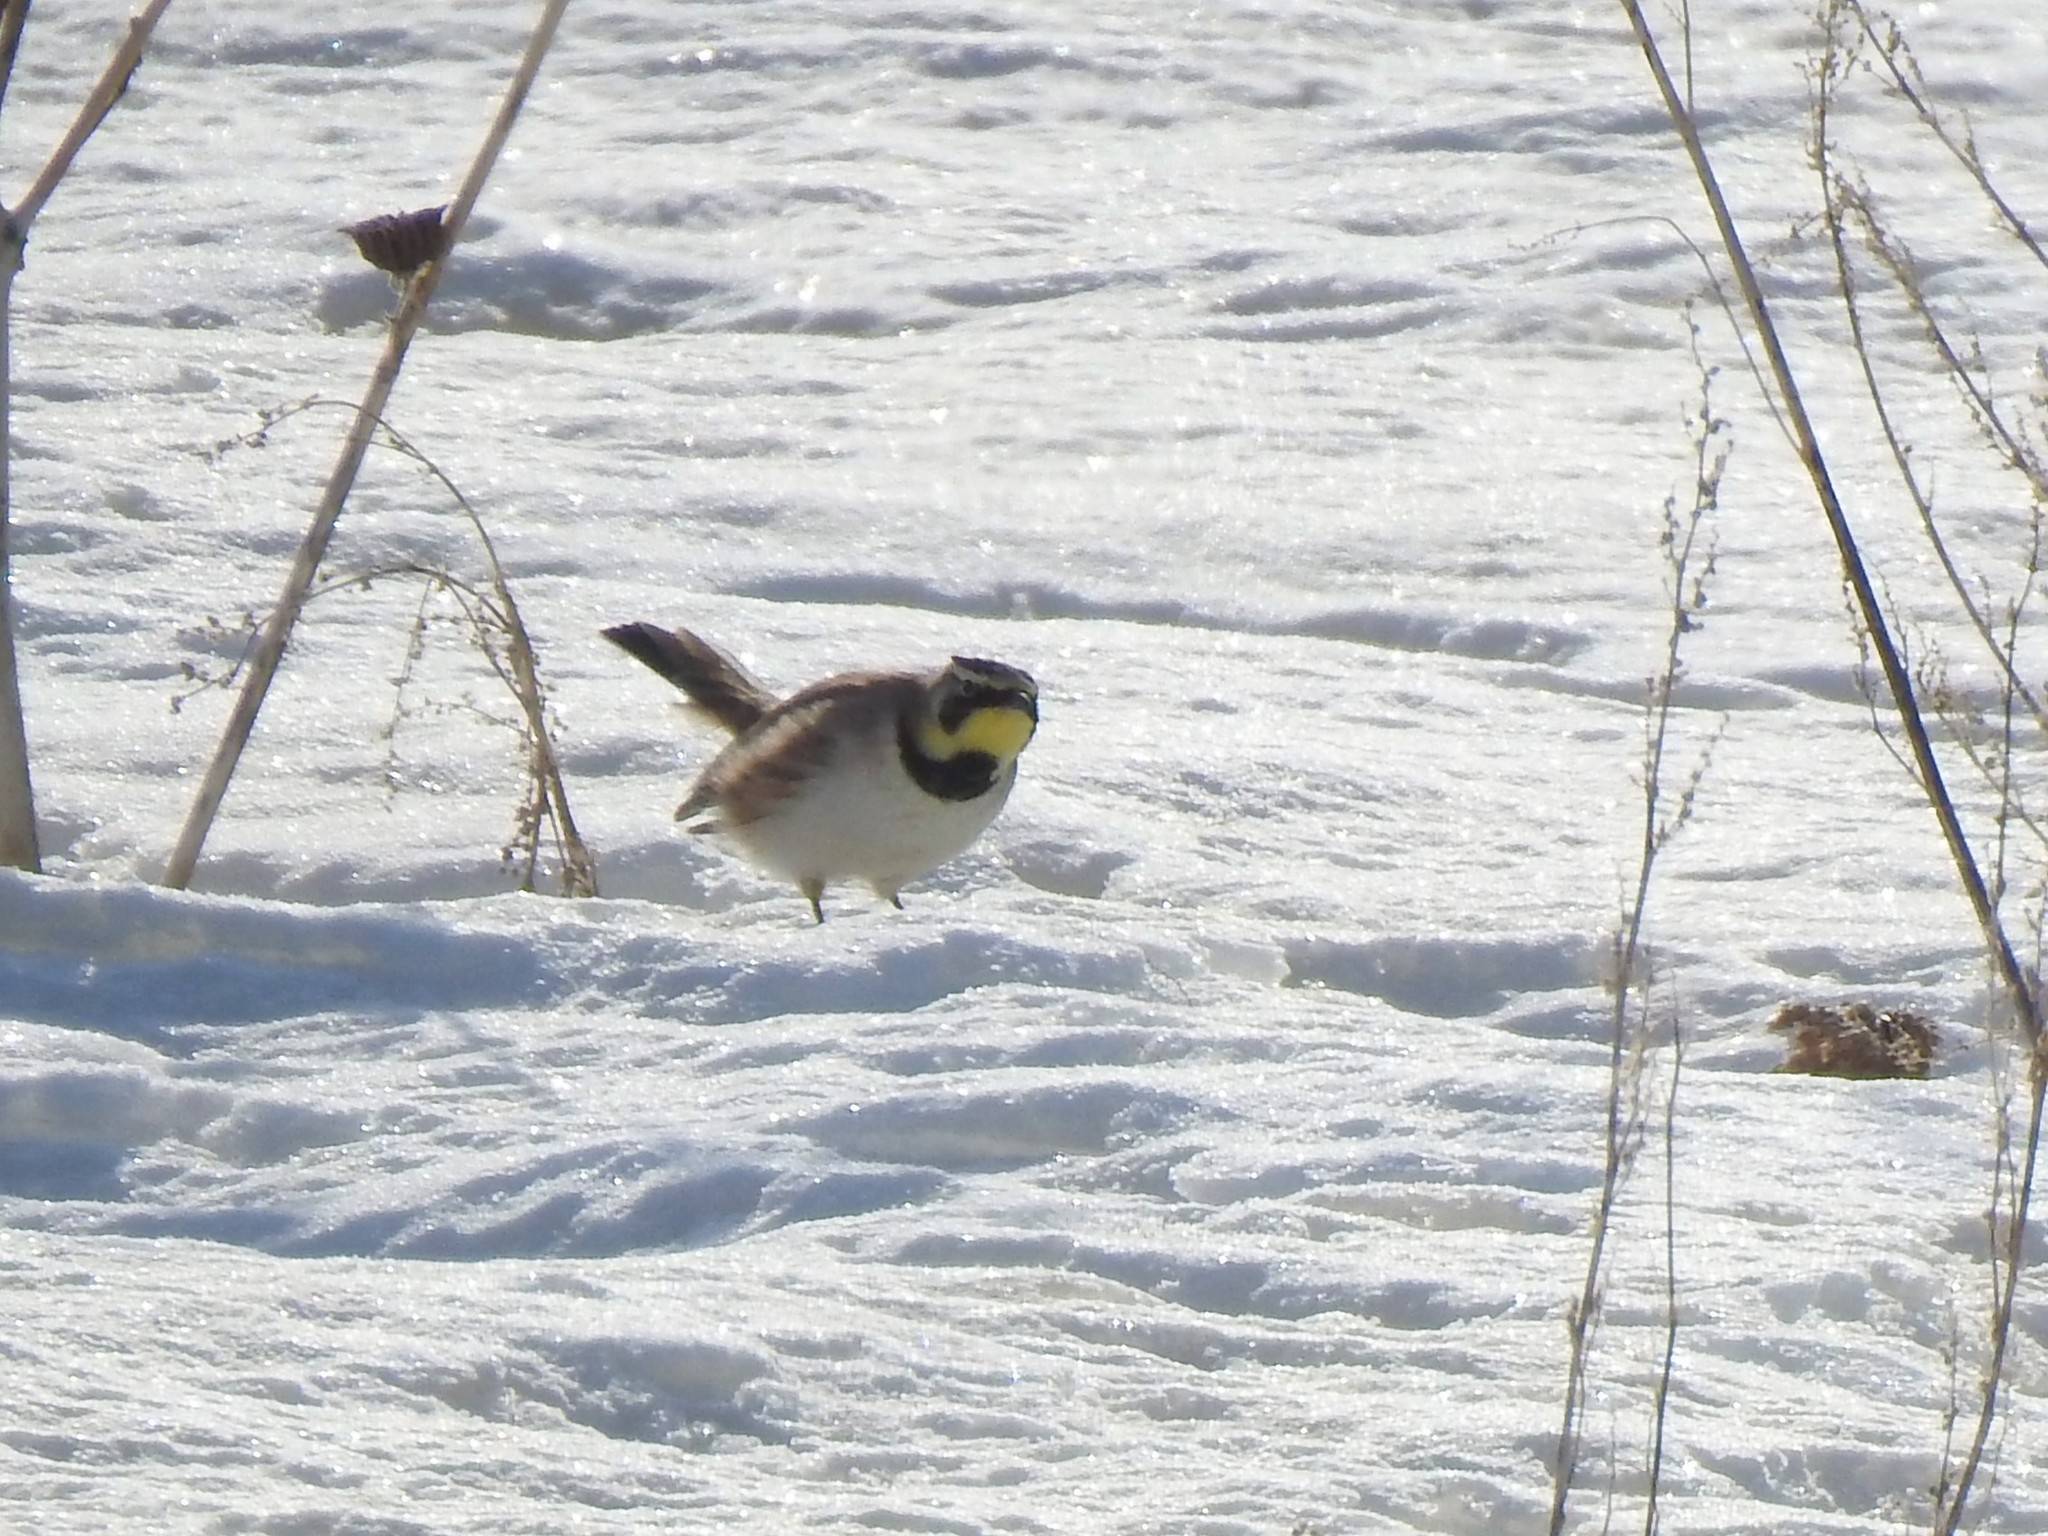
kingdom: Animalia
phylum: Chordata
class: Aves
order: Passeriformes
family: Alaudidae
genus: Eremophila
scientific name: Eremophila alpestris
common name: Horned lark
